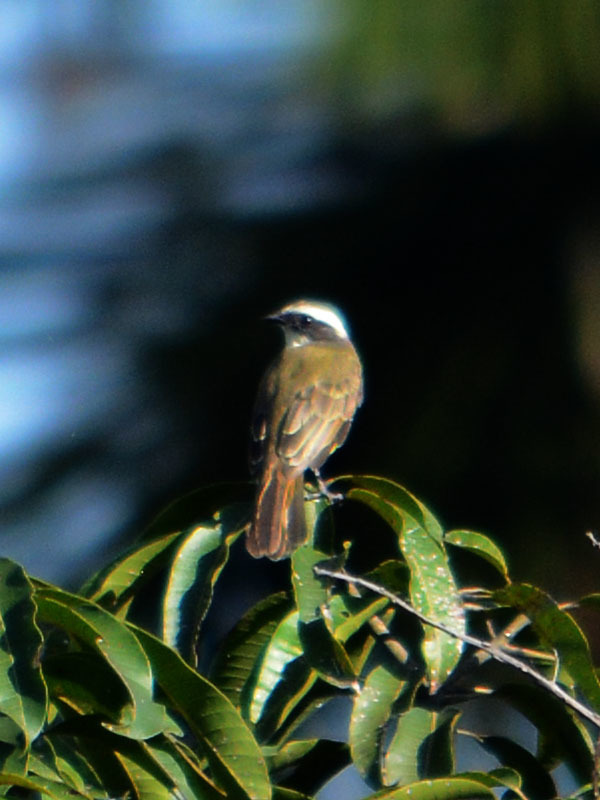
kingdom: Animalia
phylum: Chordata
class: Aves
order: Passeriformes
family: Tyrannidae
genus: Myiozetetes
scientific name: Myiozetetes similis
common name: Social flycatcher
